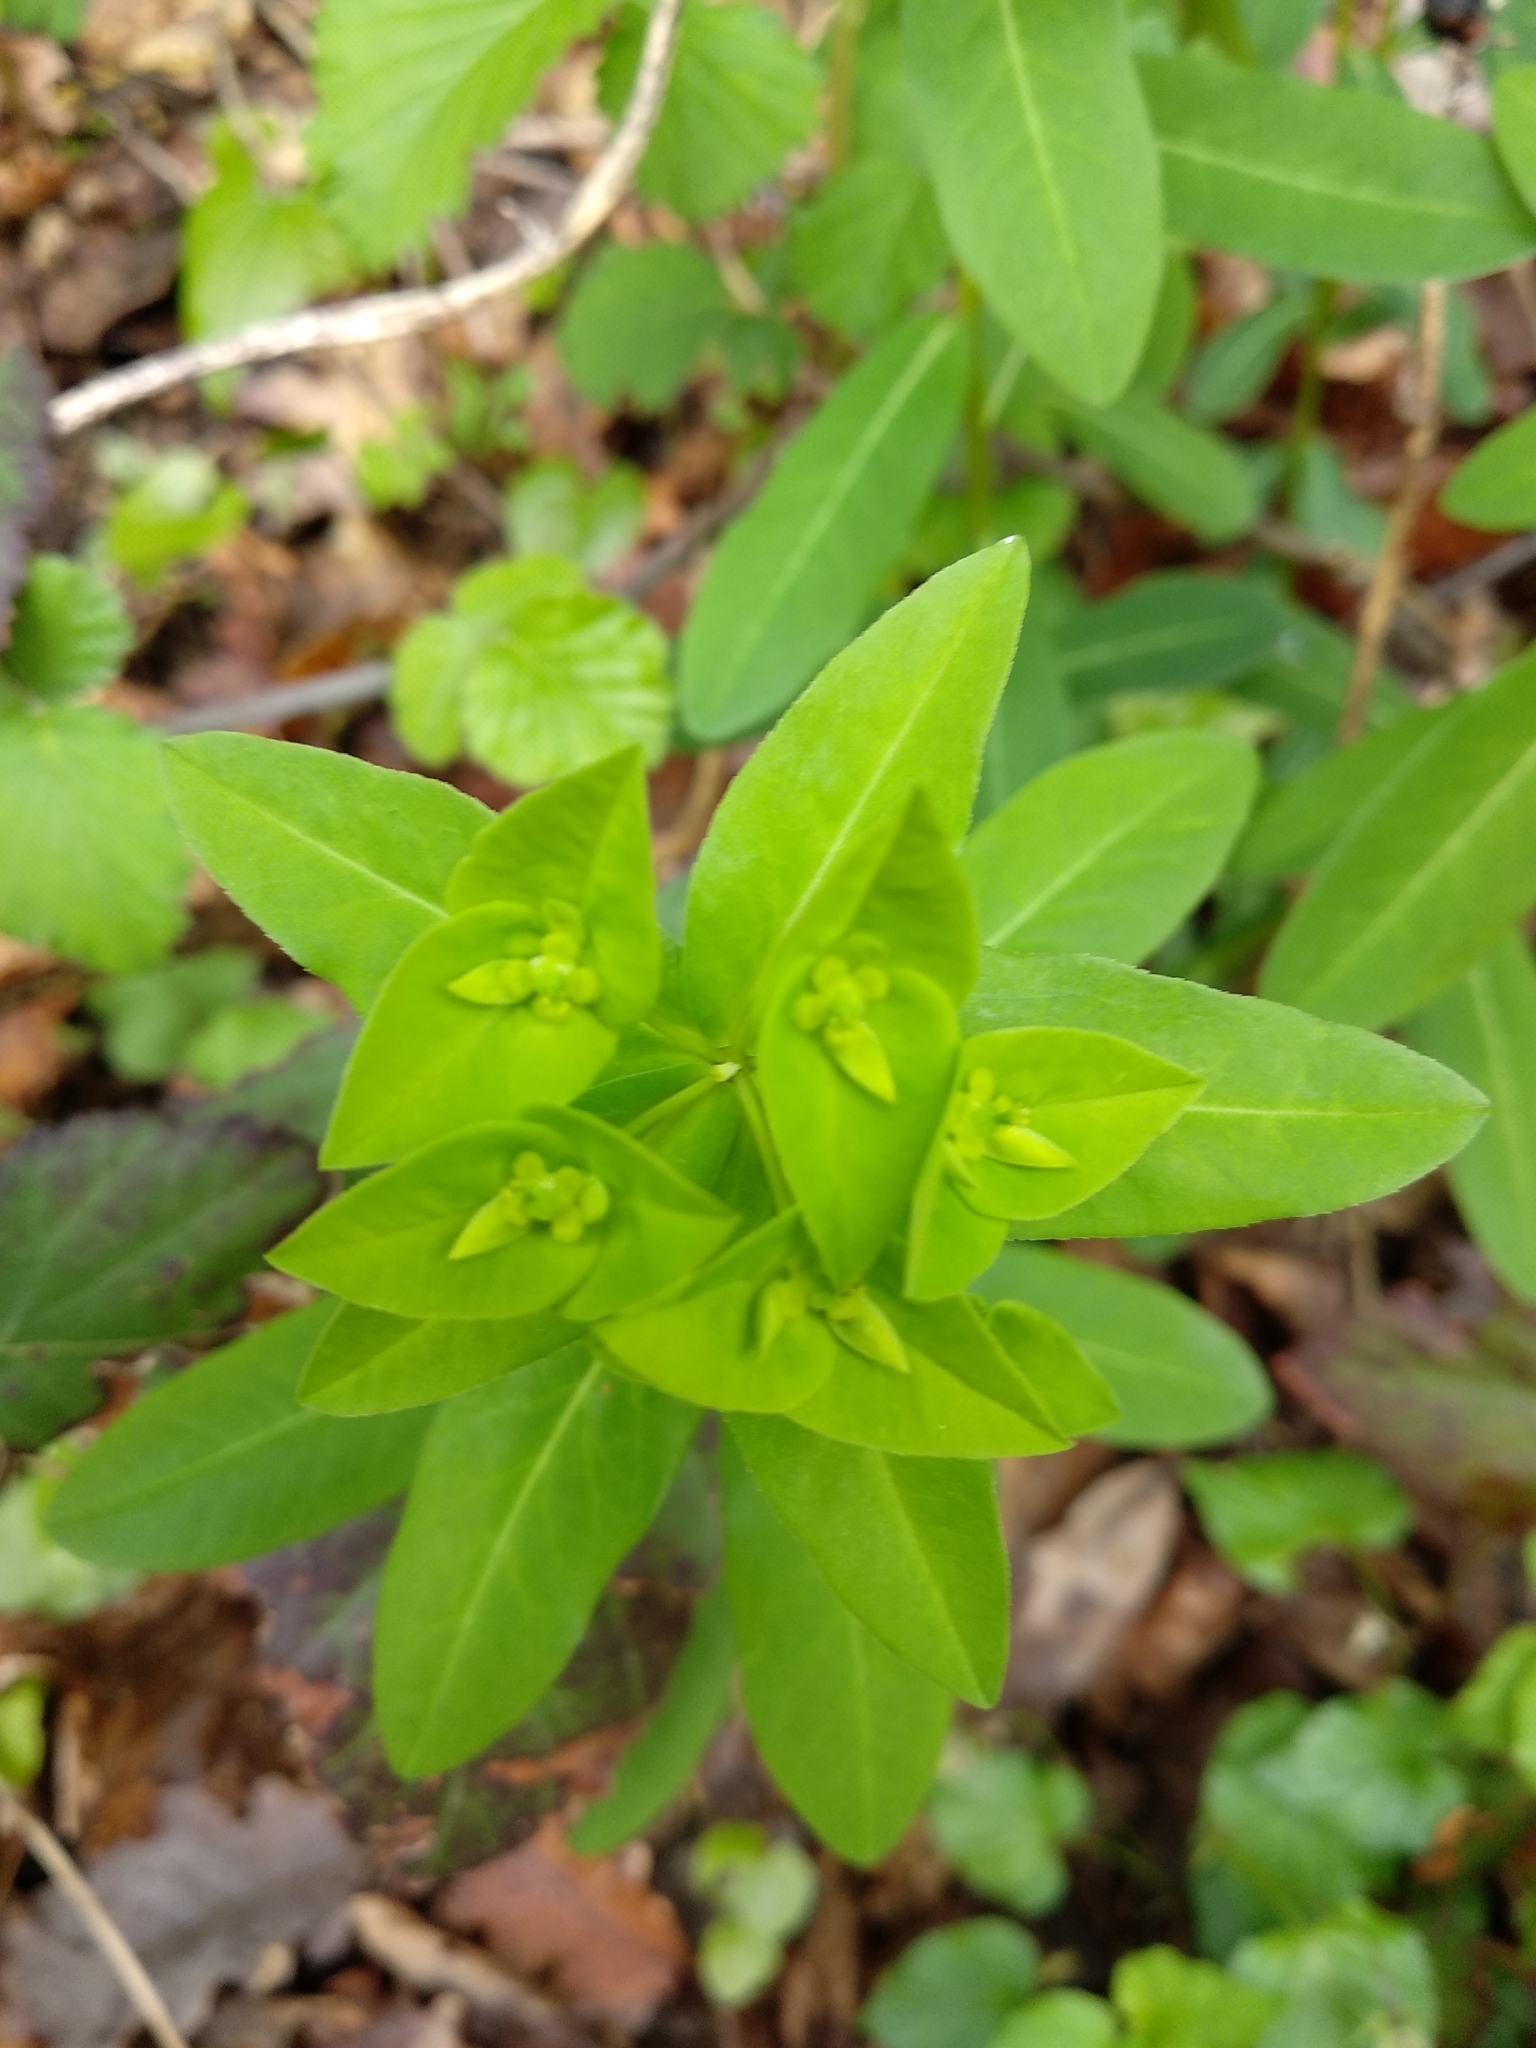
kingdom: Plantae
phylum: Tracheophyta
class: Magnoliopsida
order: Malpighiales
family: Euphorbiaceae
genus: Euphorbia
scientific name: Euphorbia dulcis
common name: Sweet spurge
